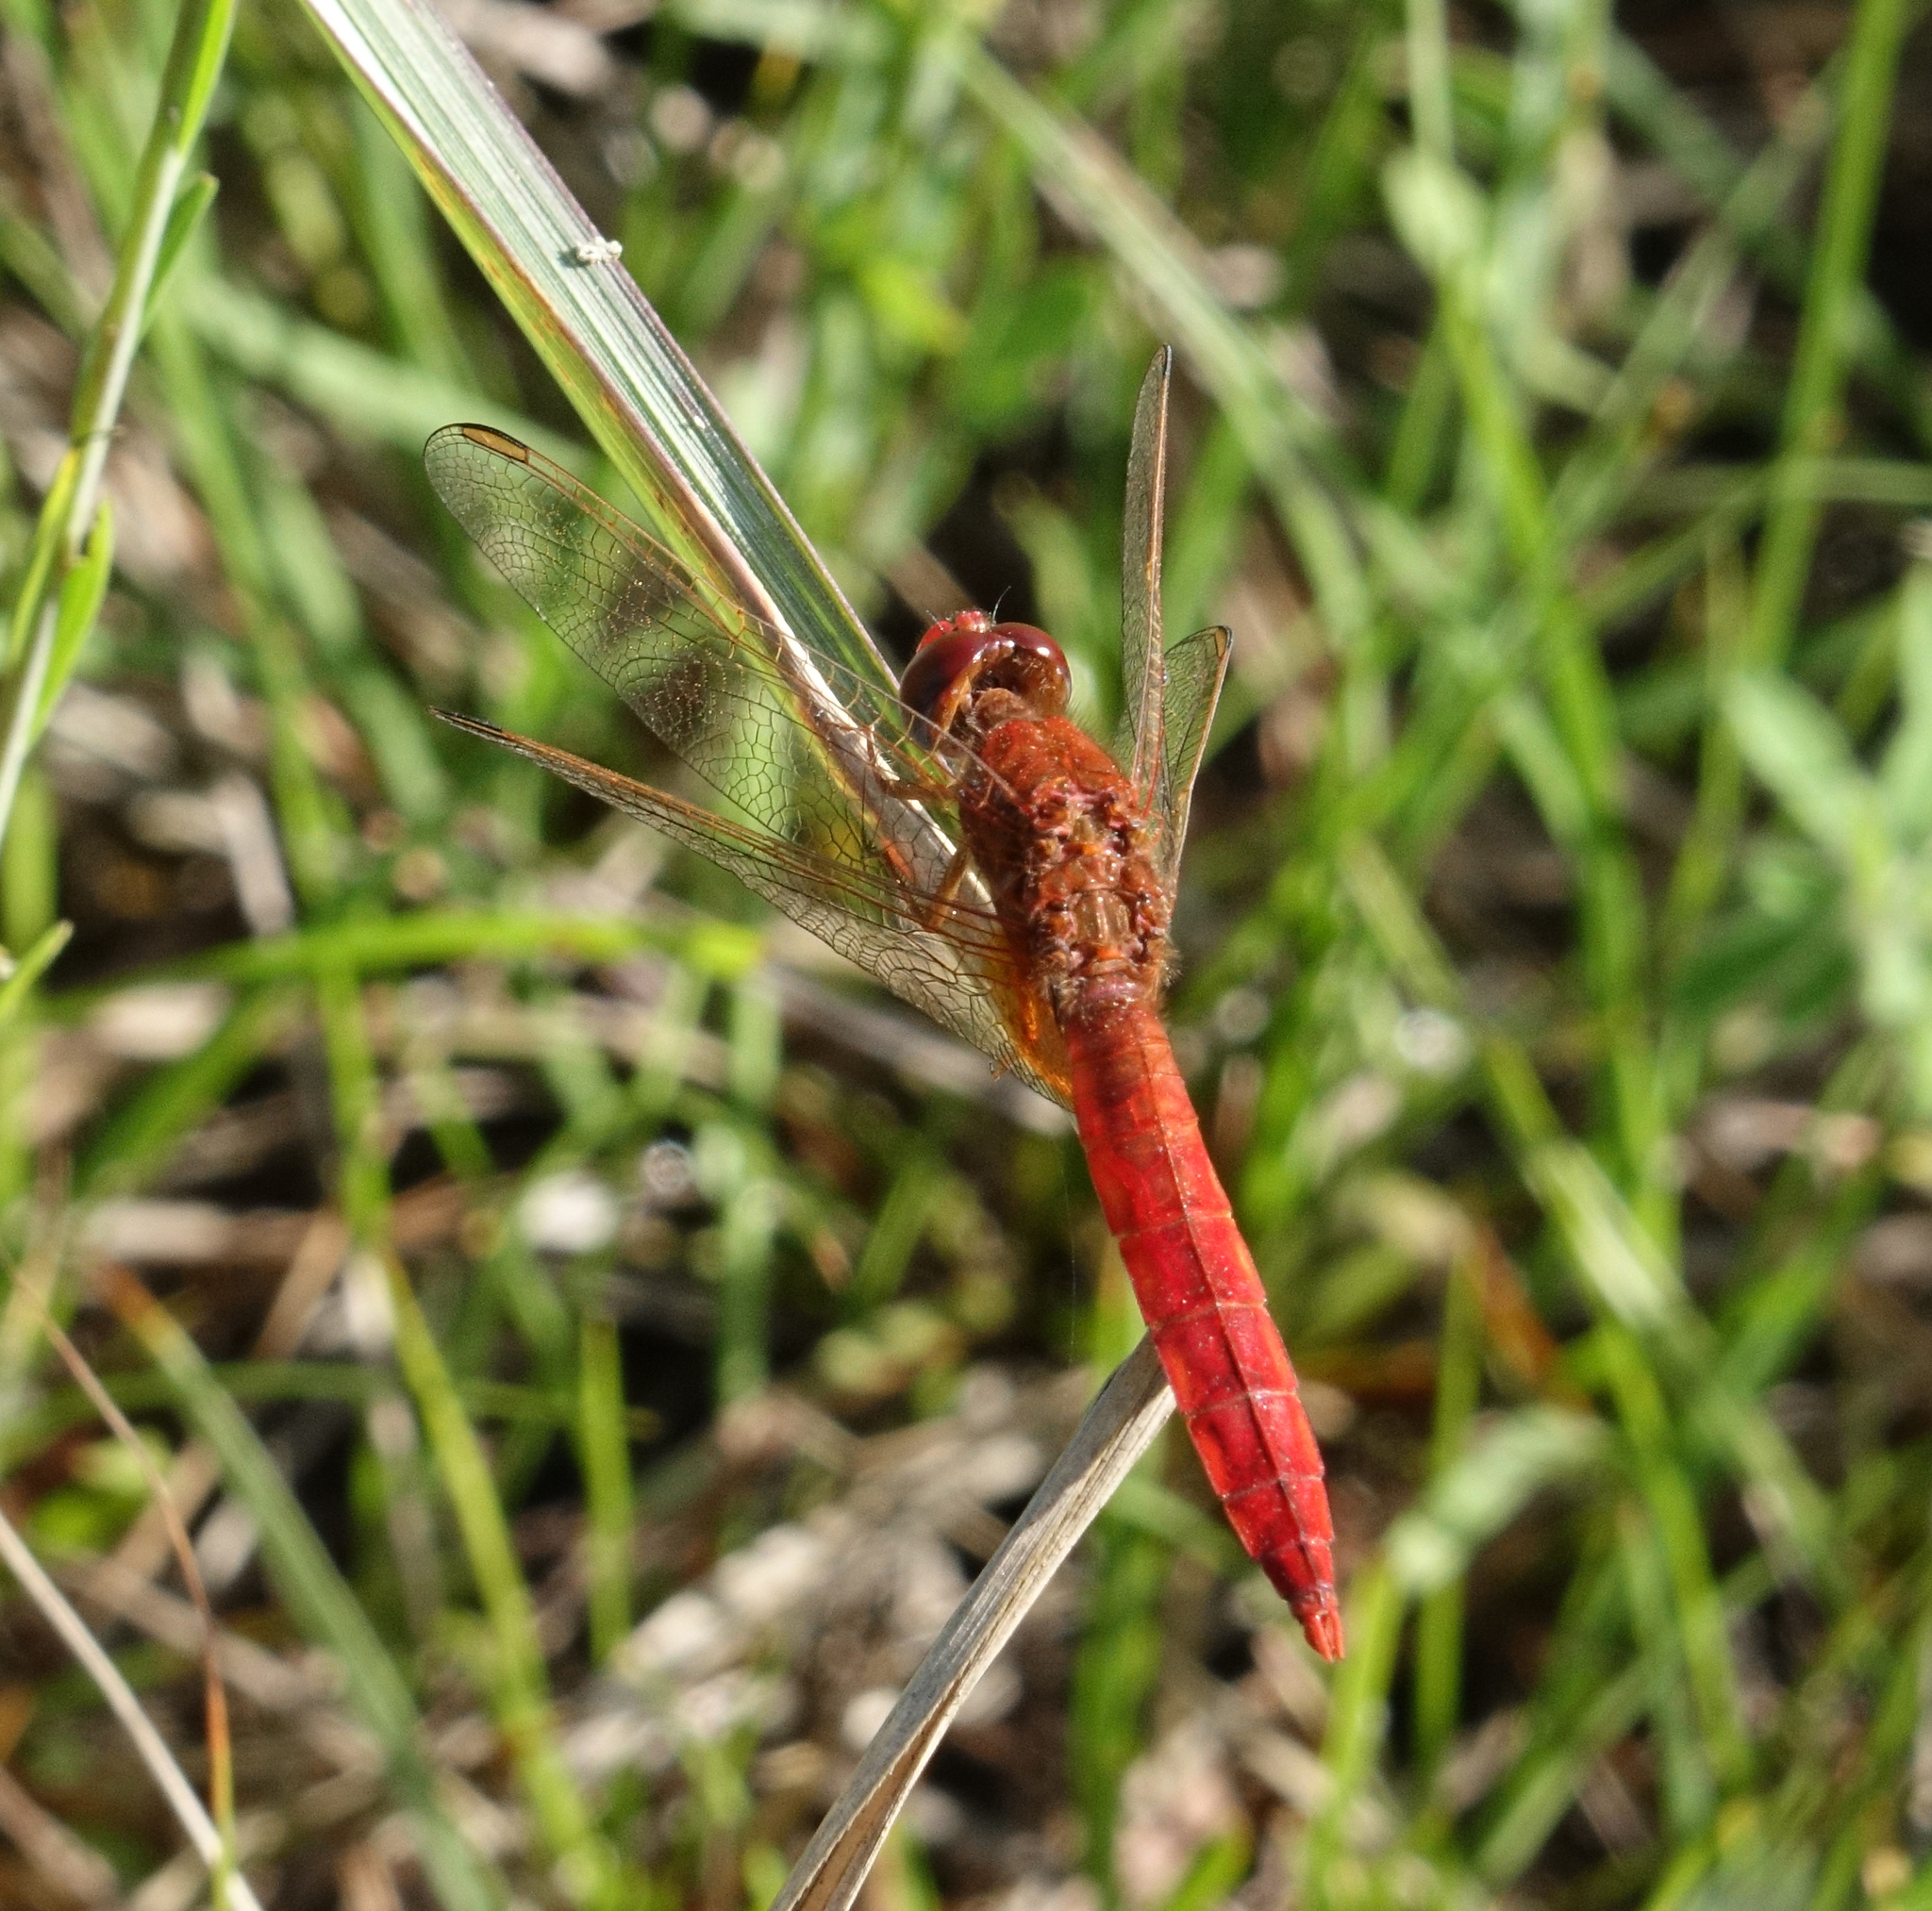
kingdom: Animalia
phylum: Arthropoda
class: Insecta
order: Odonata
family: Libellulidae
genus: Crocothemis
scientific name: Crocothemis erythraea
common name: Scarlet dragonfly
